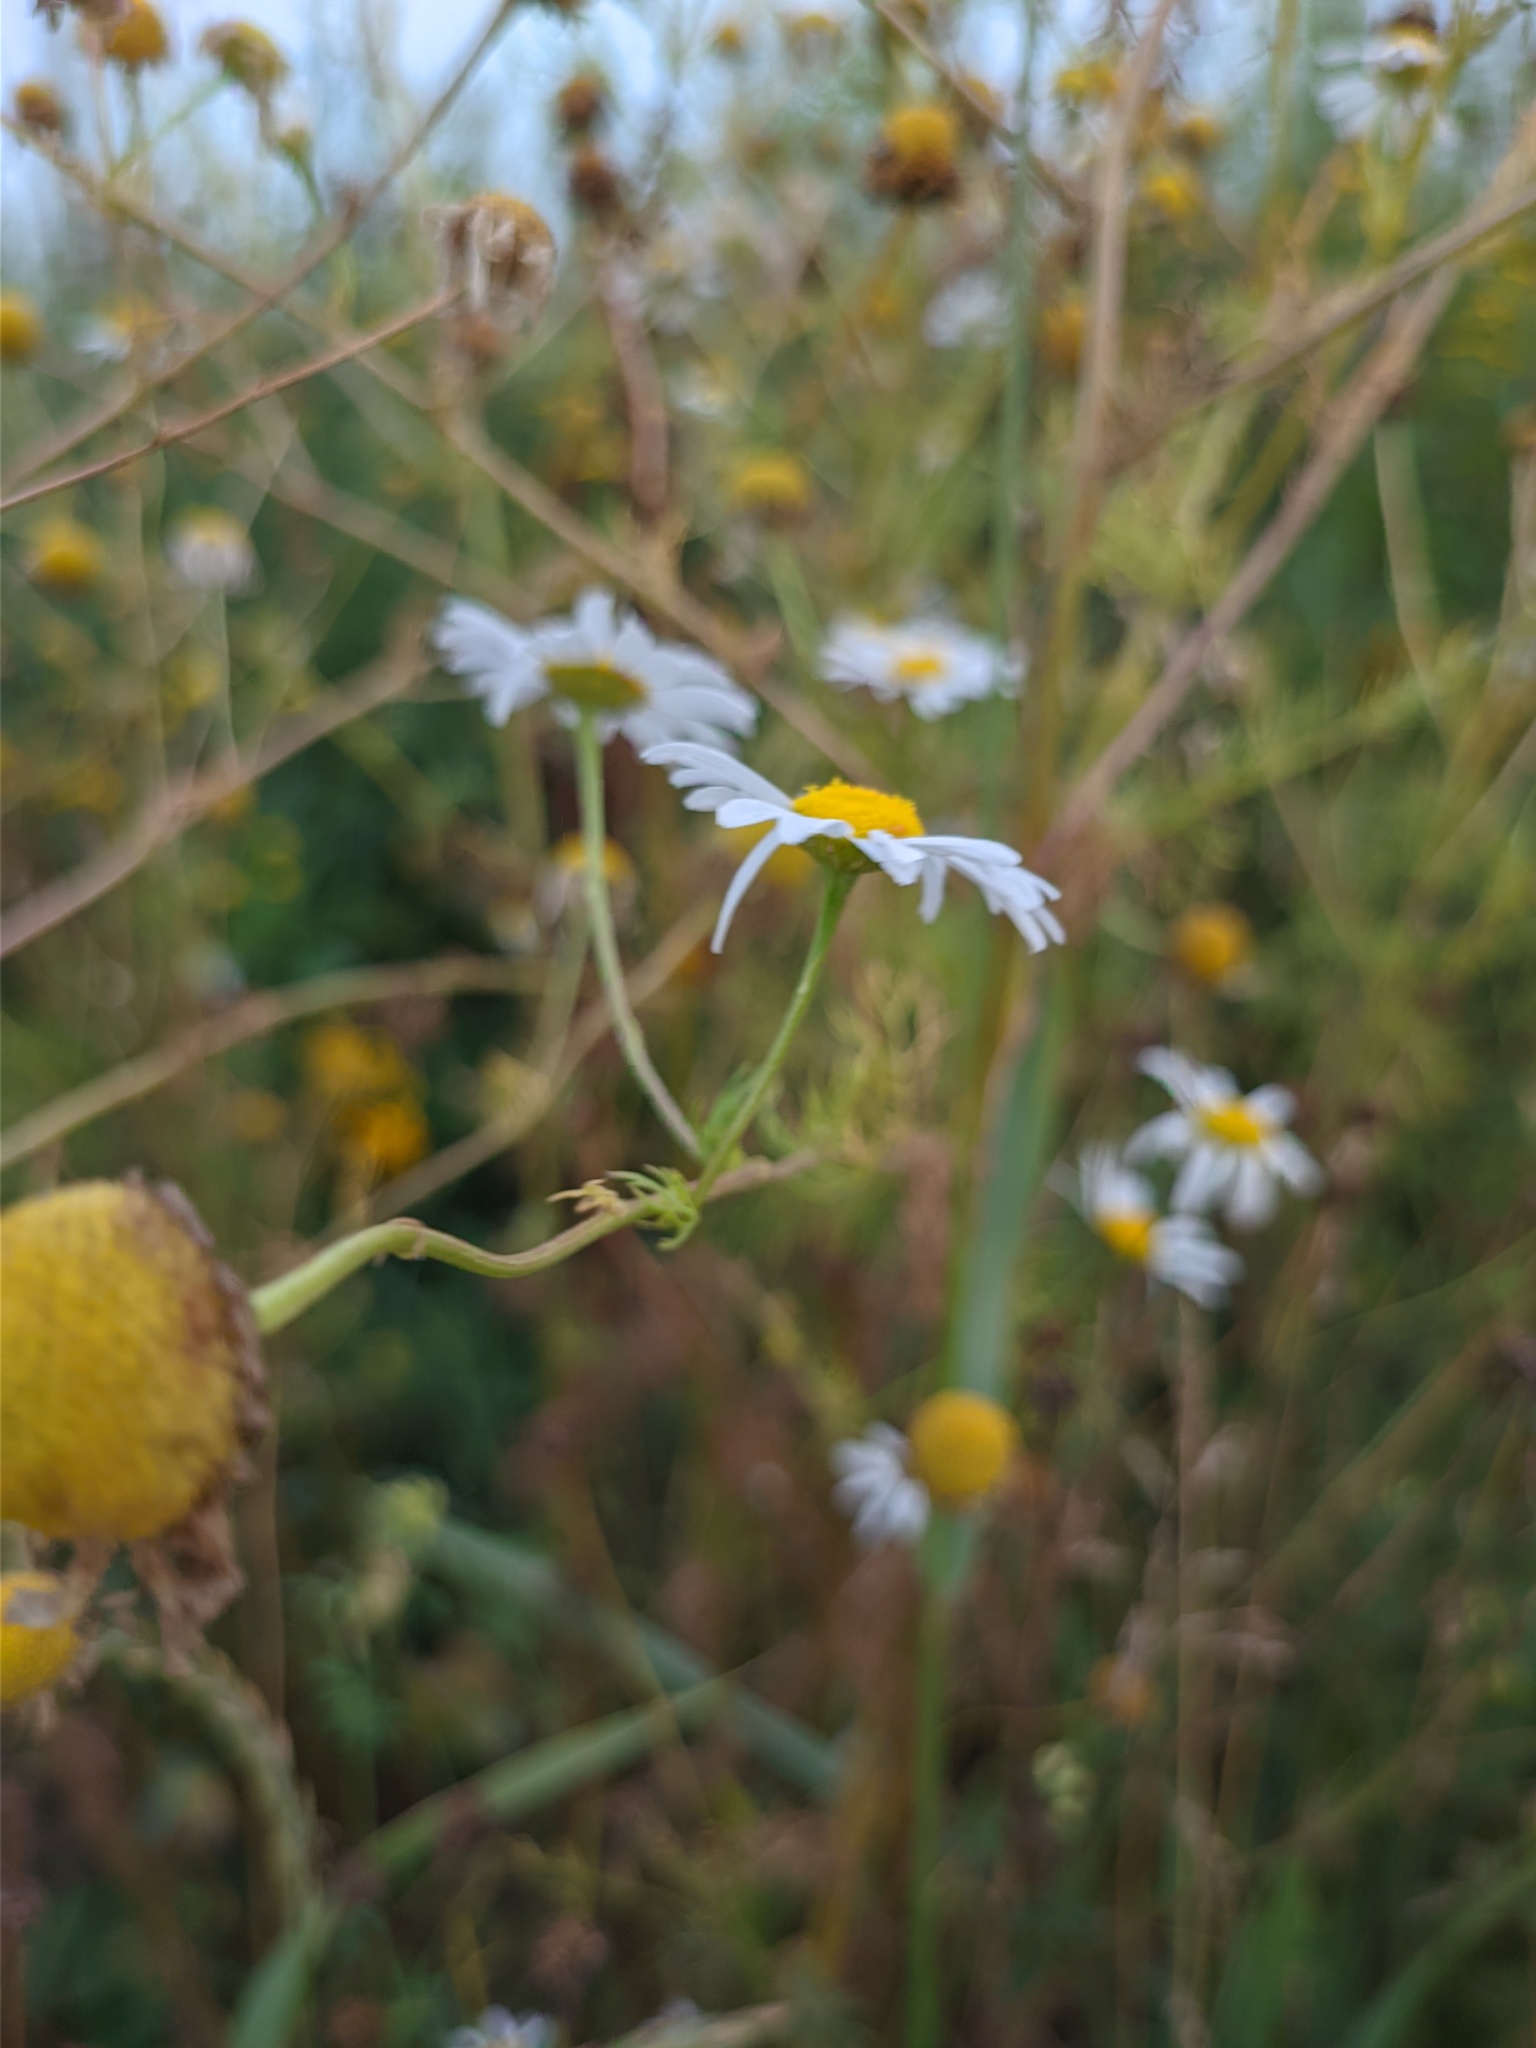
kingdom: Plantae
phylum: Tracheophyta
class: Magnoliopsida
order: Asterales
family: Asteraceae
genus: Tripleurospermum
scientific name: Tripleurospermum inodorum
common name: Scentless mayweed
